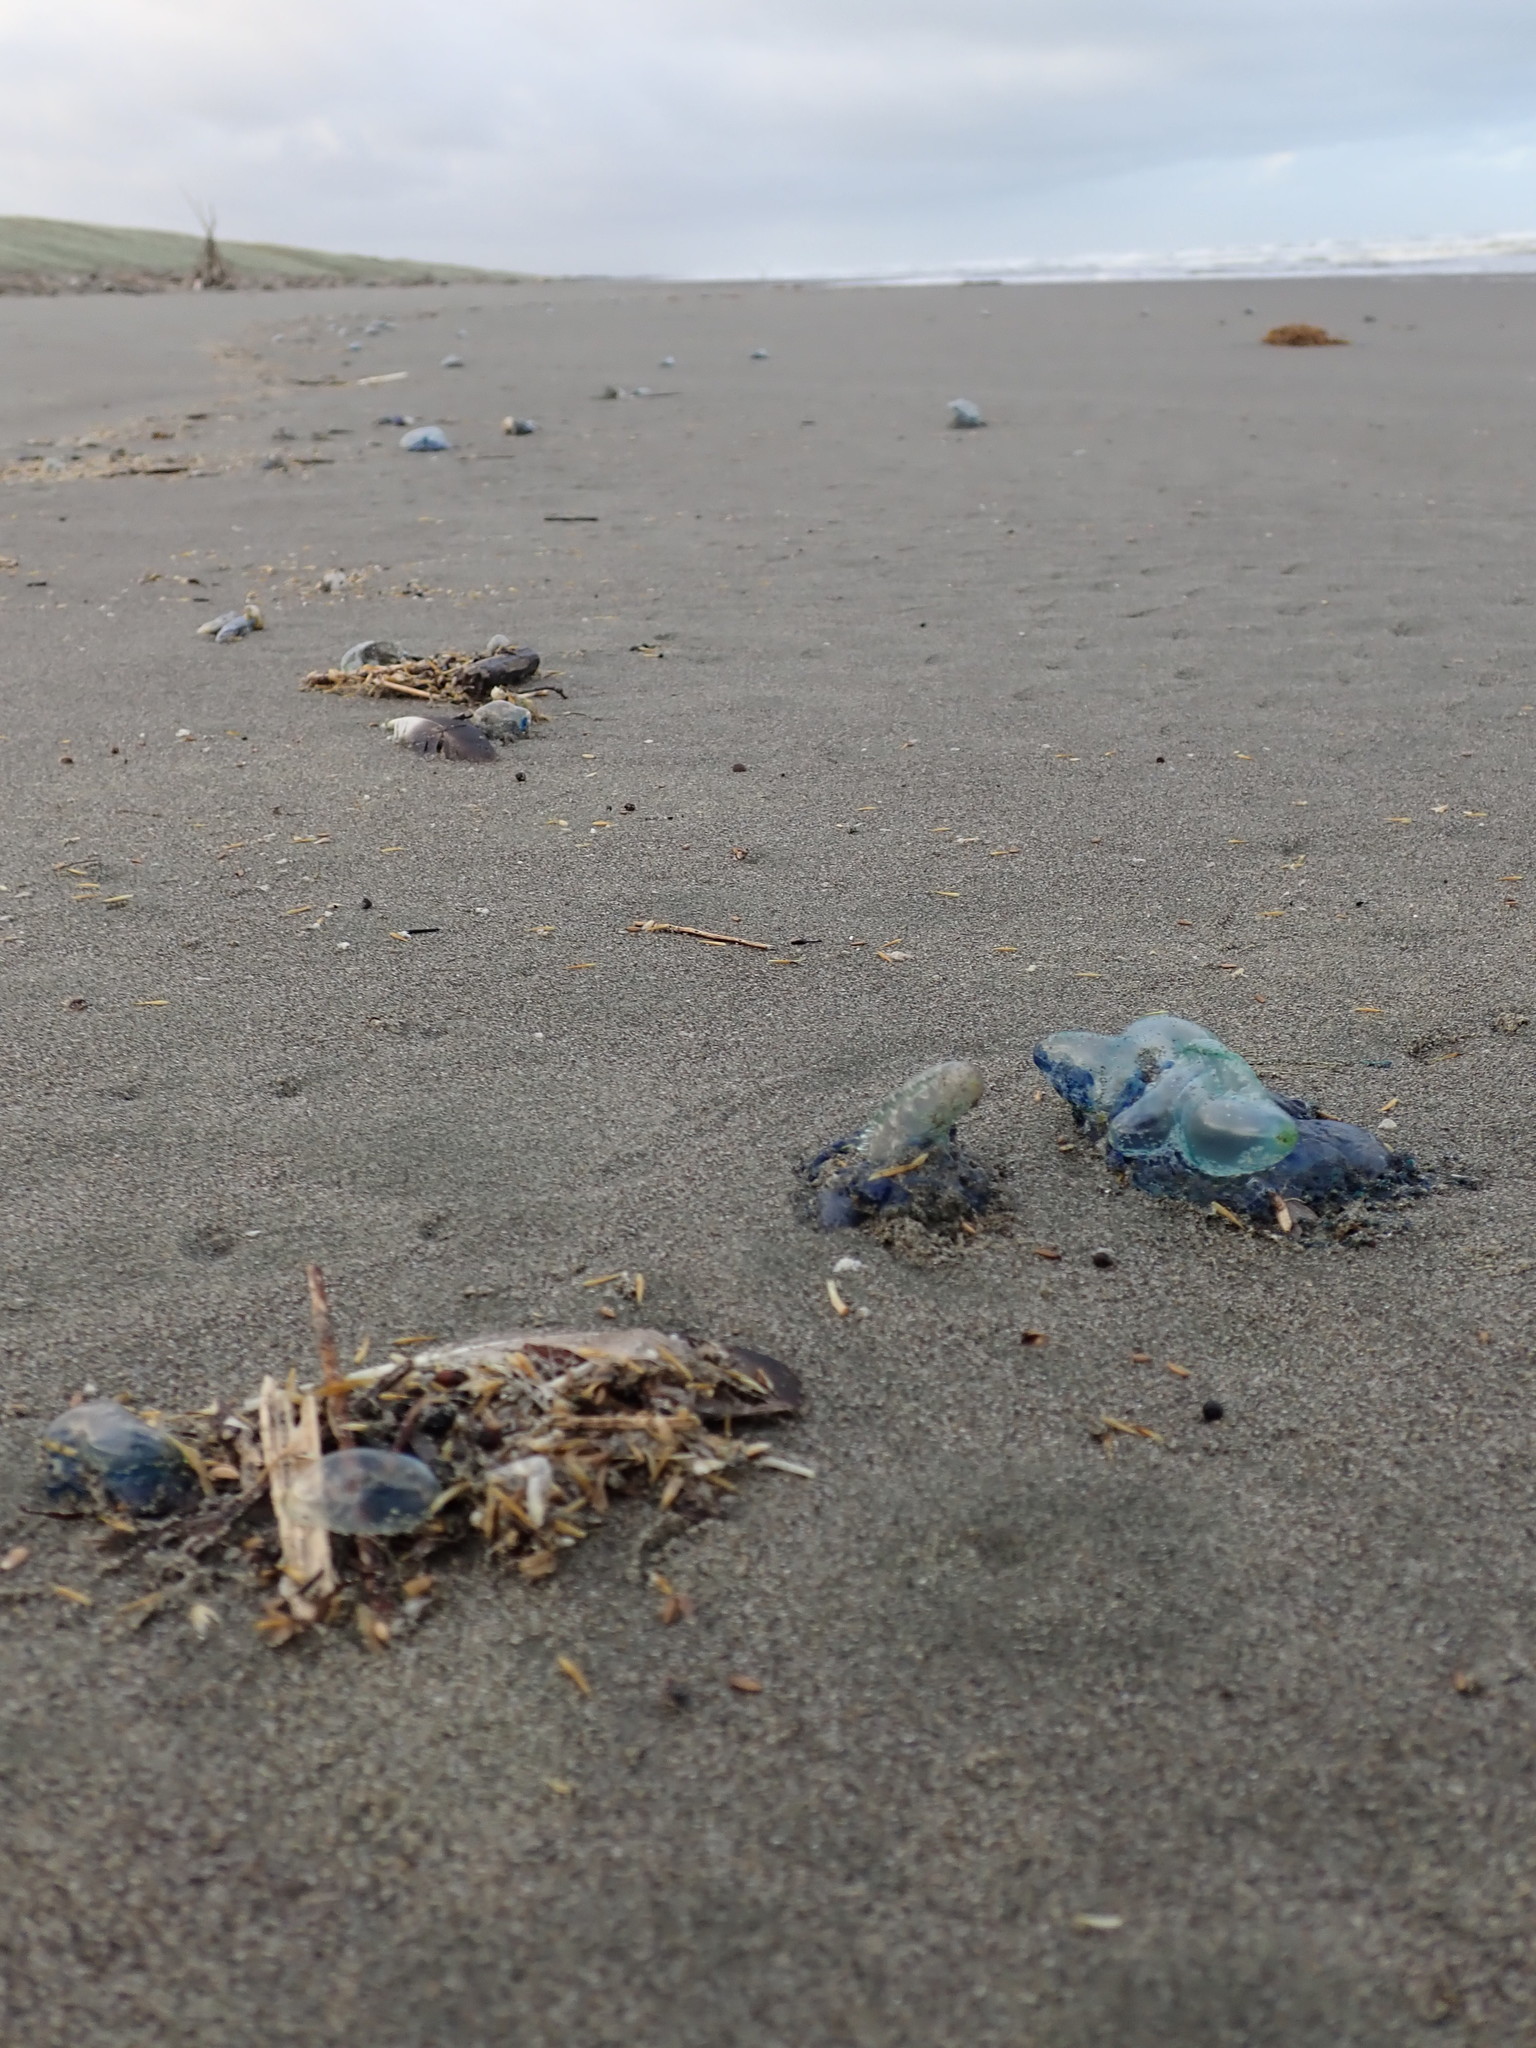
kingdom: Animalia
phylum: Cnidaria
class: Hydrozoa
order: Siphonophorae
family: Physaliidae
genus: Physalia
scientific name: Physalia physalis
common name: Portuguese man-of-war
